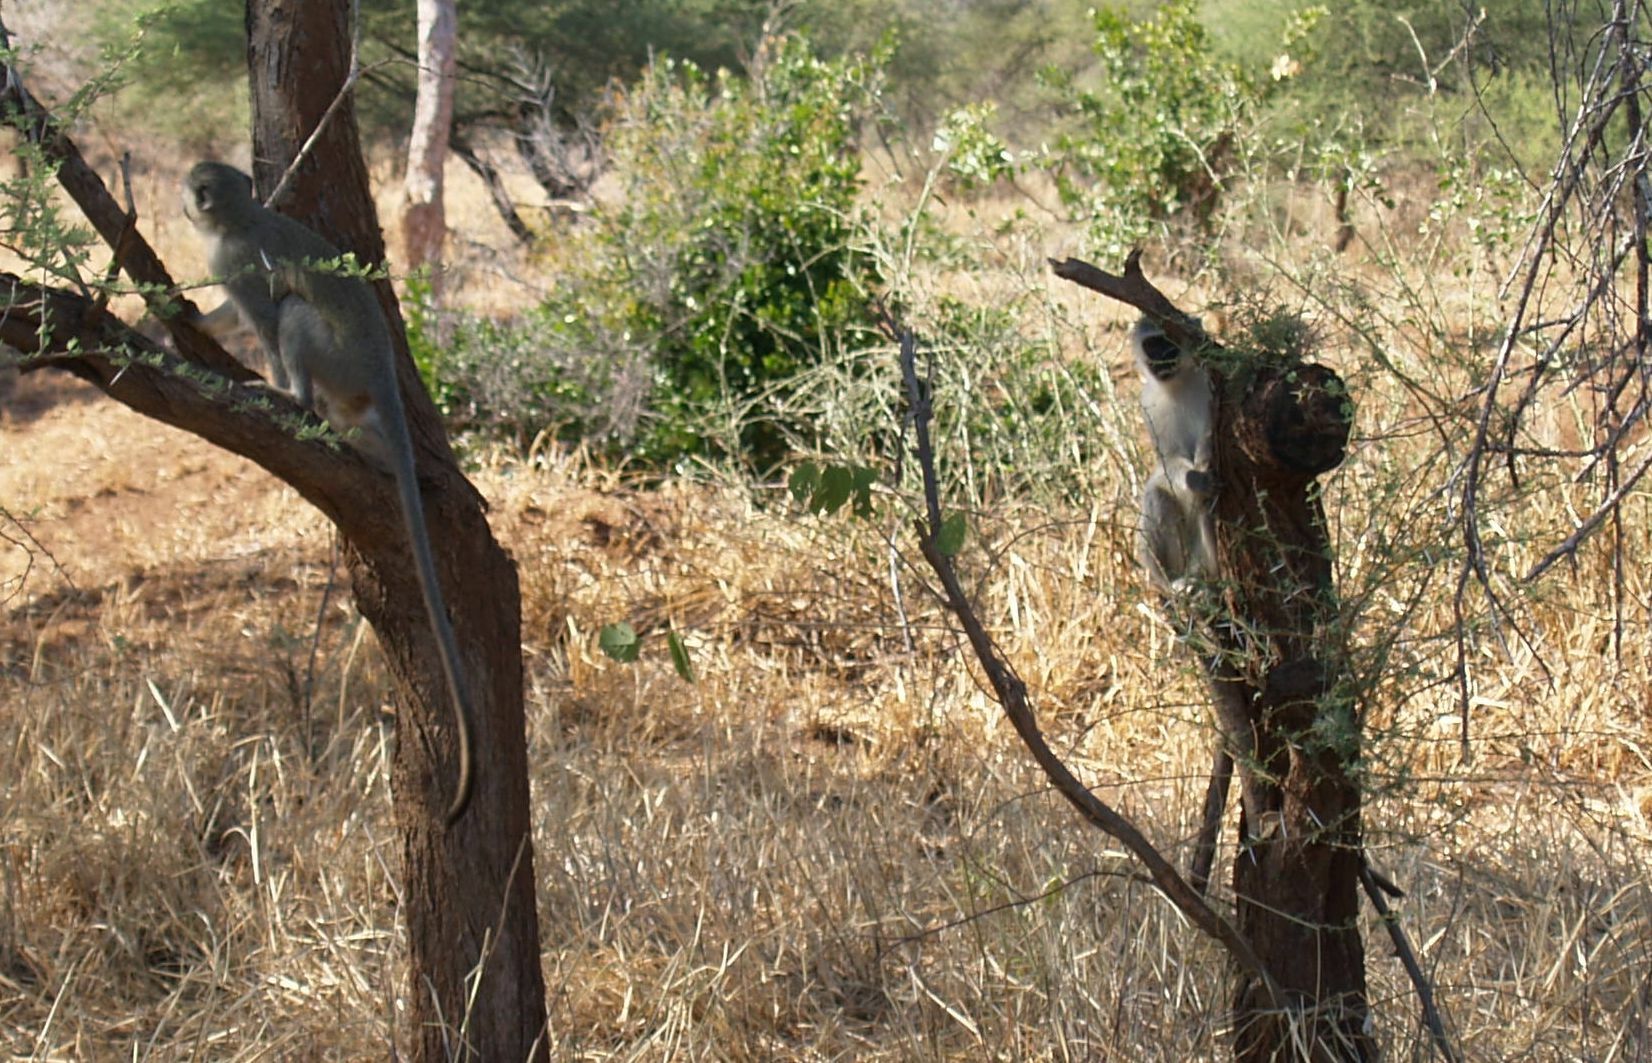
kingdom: Animalia
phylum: Chordata
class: Mammalia
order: Primates
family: Cercopithecidae
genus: Chlorocebus
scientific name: Chlorocebus pygerythrus
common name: Vervet monkey
